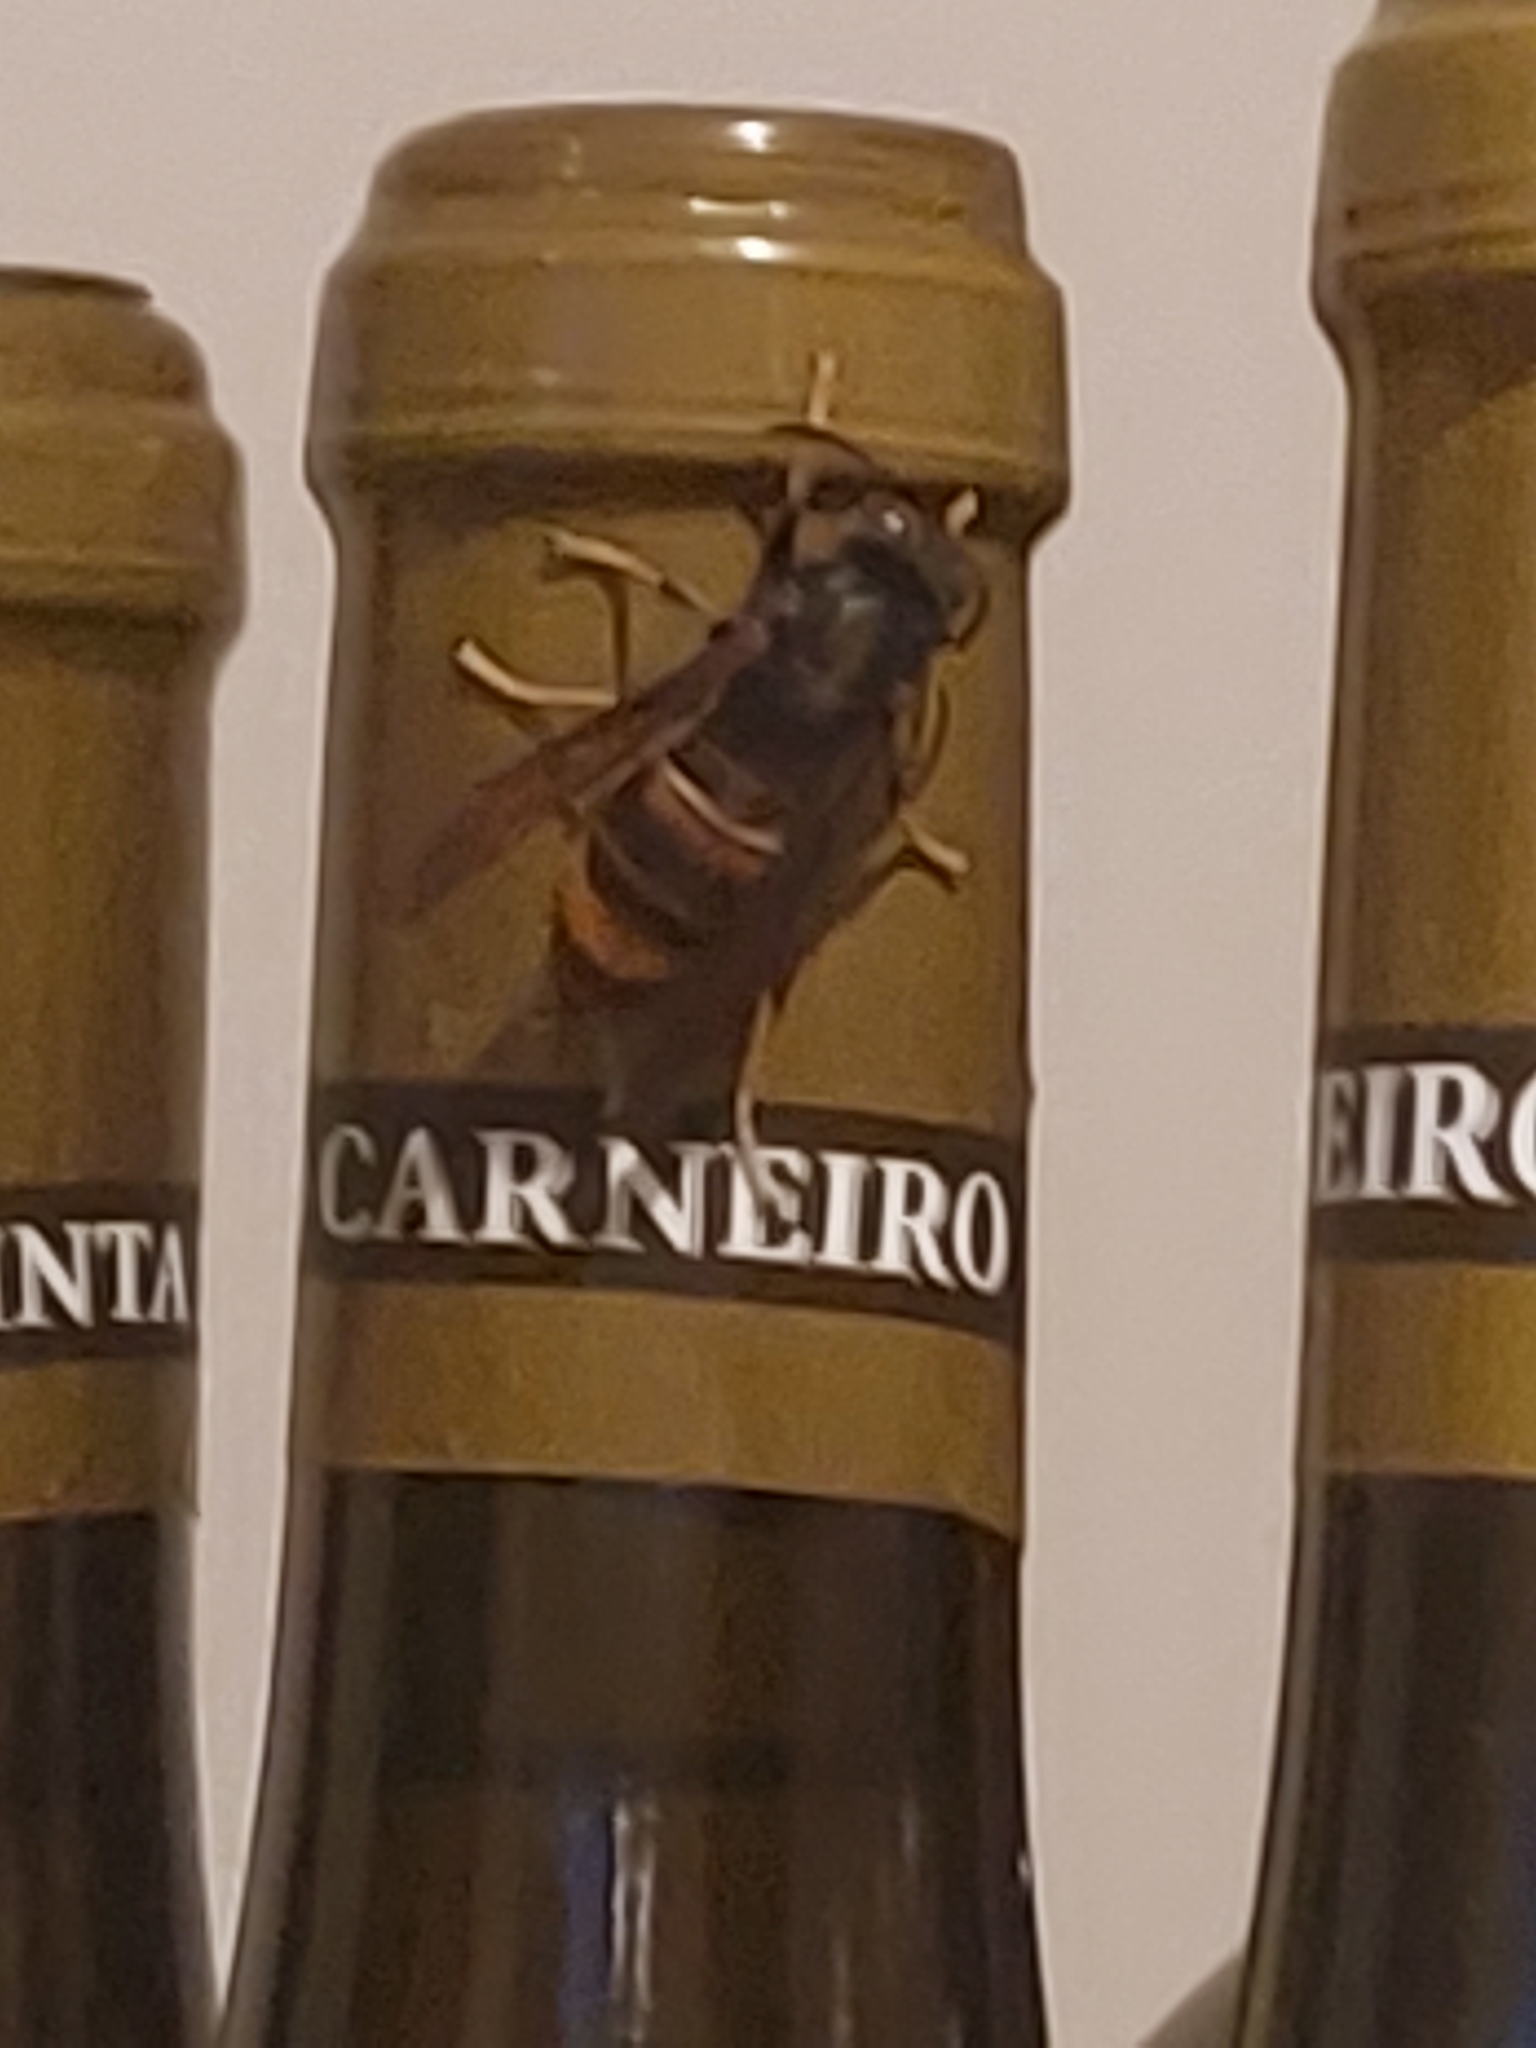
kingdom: Animalia
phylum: Arthropoda
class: Insecta
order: Hymenoptera
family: Vespidae
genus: Vespa
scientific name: Vespa velutina
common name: Asian hornet
